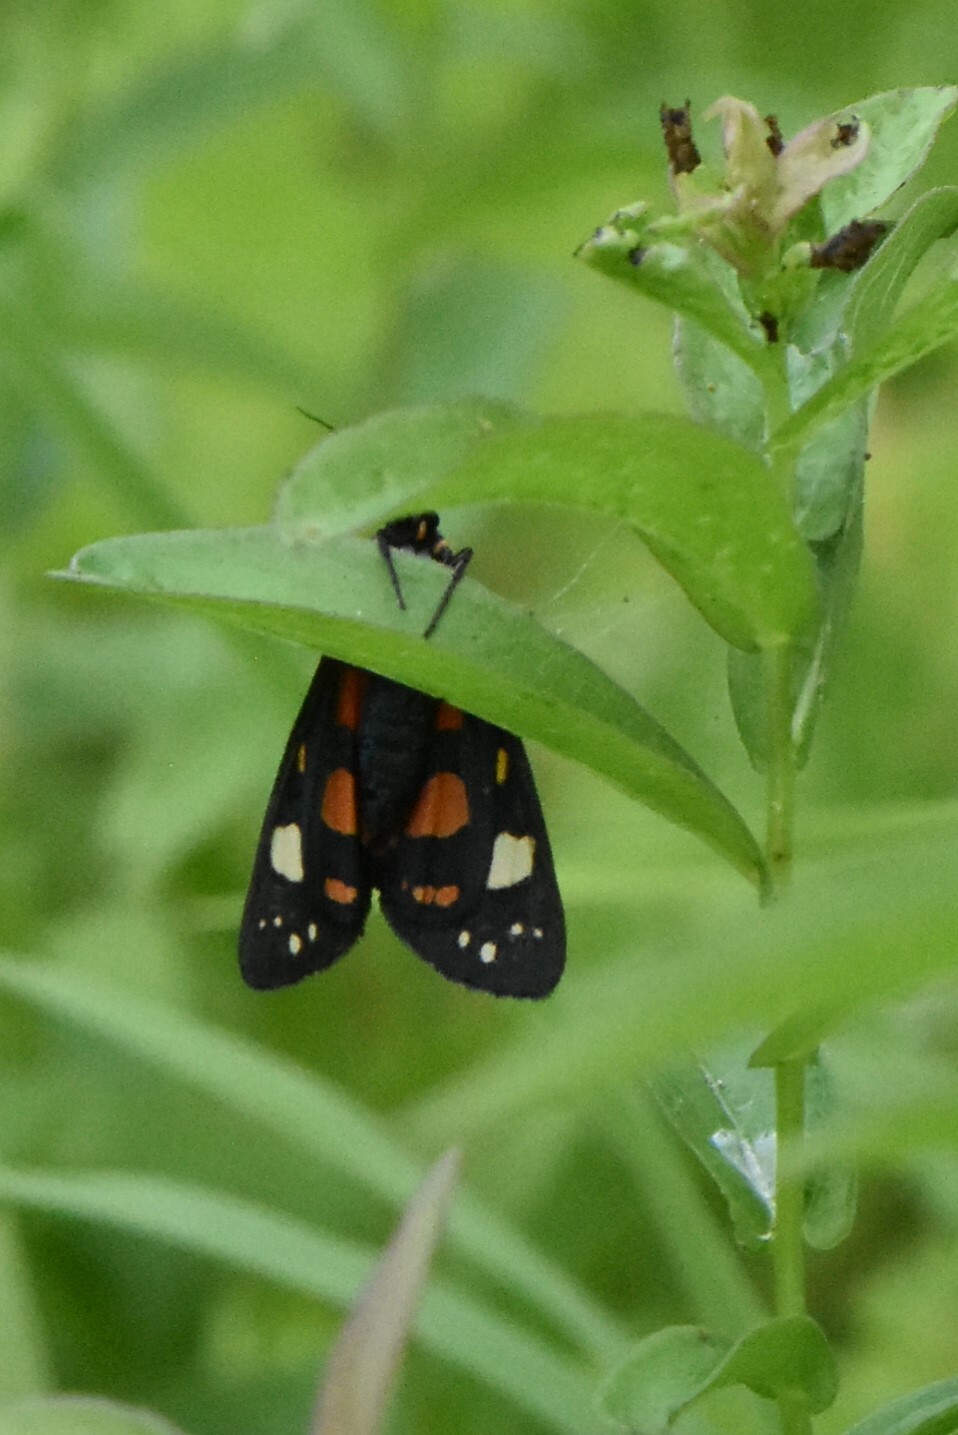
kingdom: Animalia
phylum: Arthropoda
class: Insecta
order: Lepidoptera
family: Erebidae
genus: Callimorpha
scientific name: Callimorpha dominula
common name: Scarlet tiger
